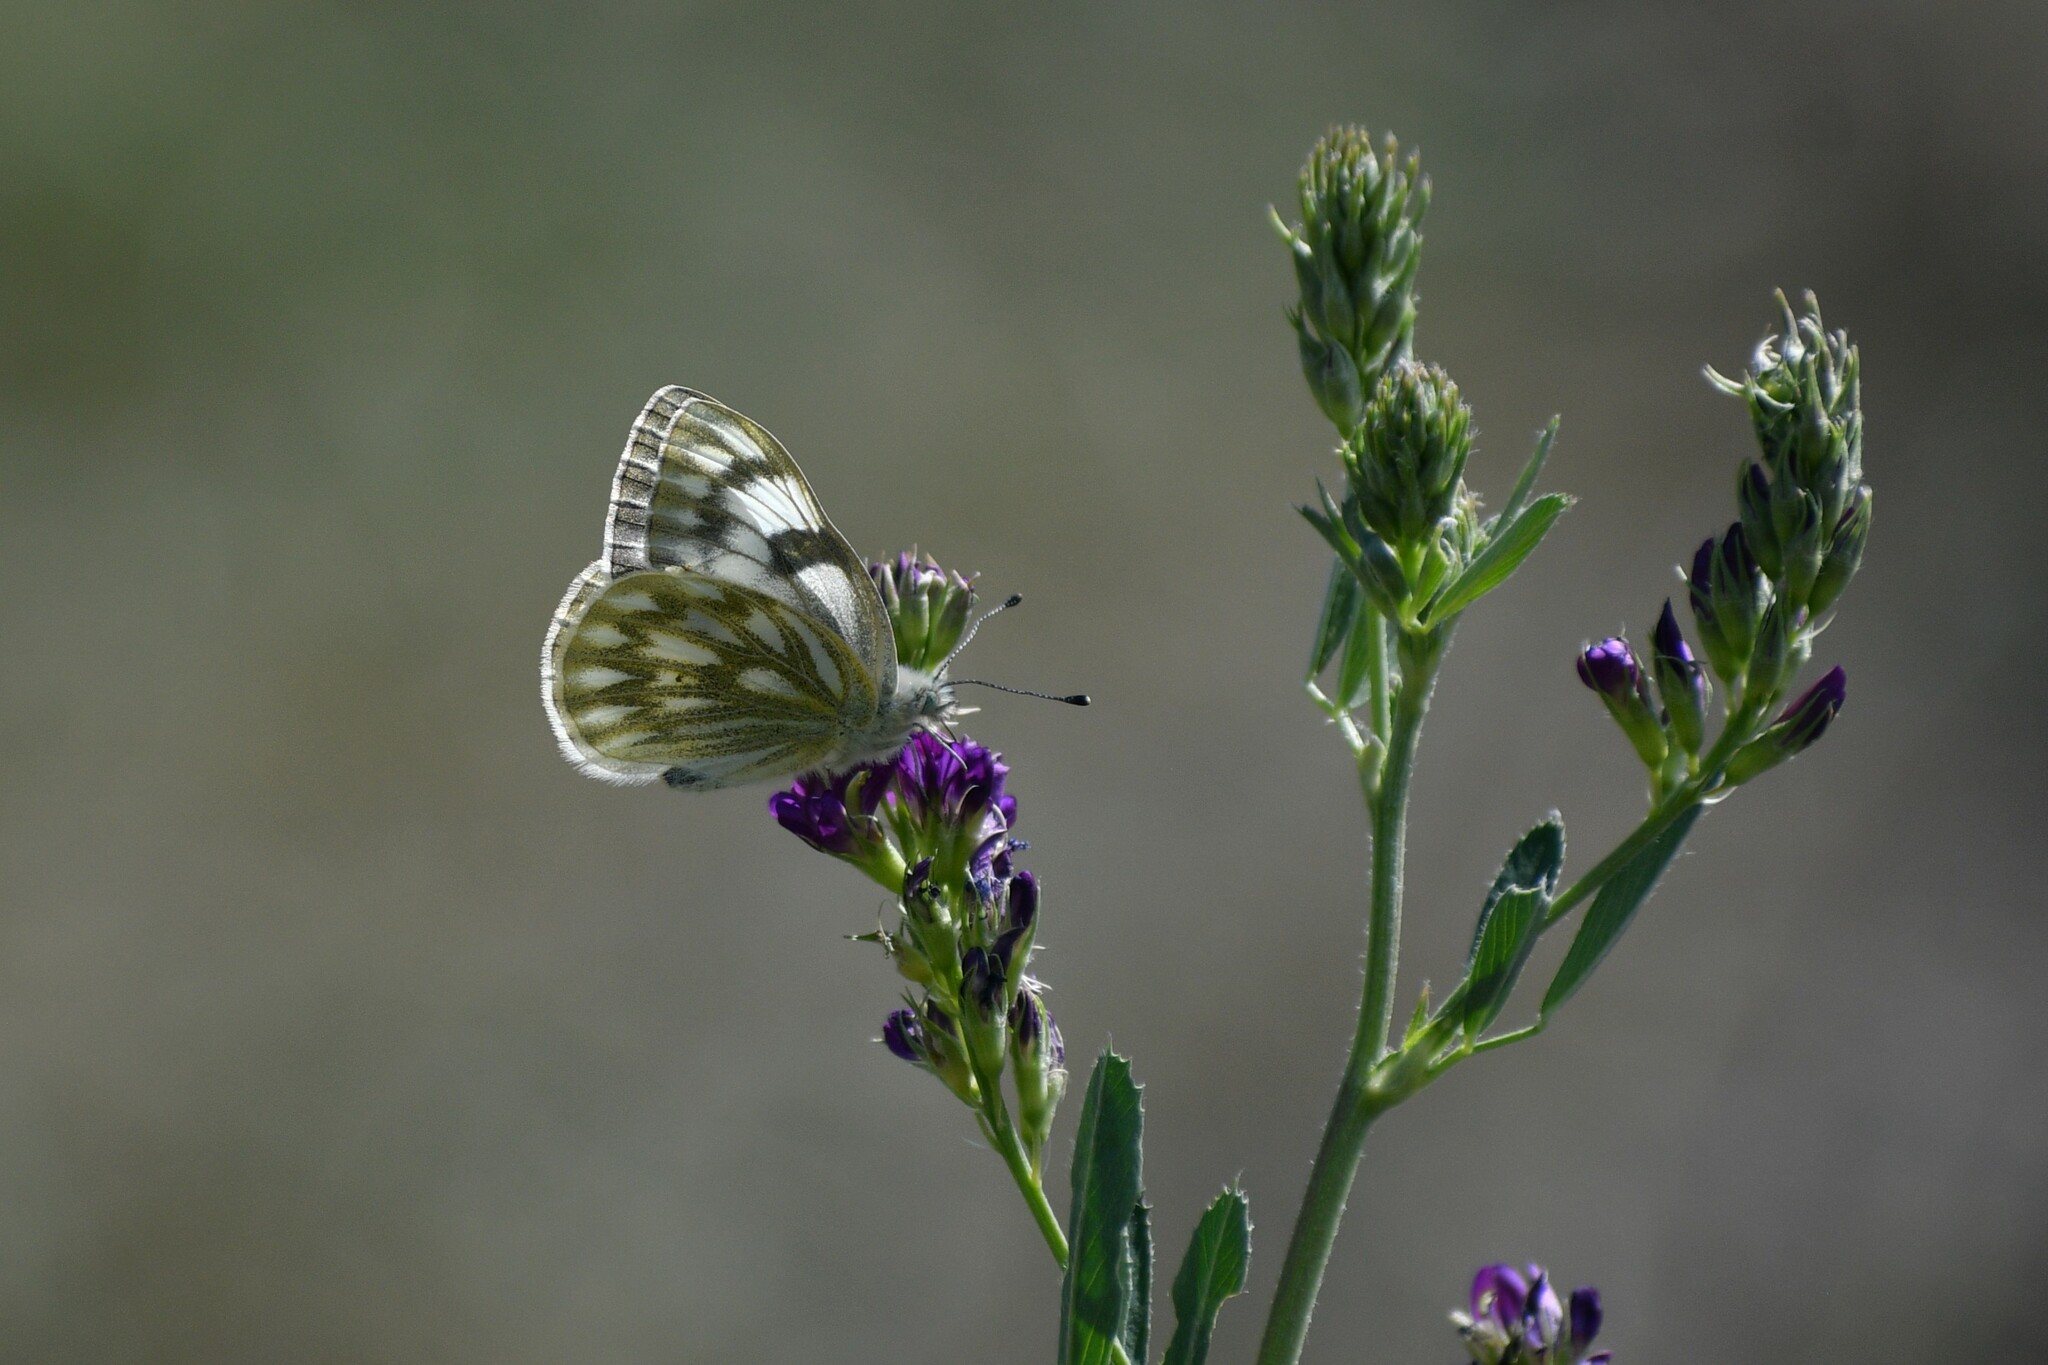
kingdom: Animalia
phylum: Arthropoda
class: Insecta
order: Lepidoptera
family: Pieridae
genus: Pontia
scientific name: Pontia occidentalis
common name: Western white
